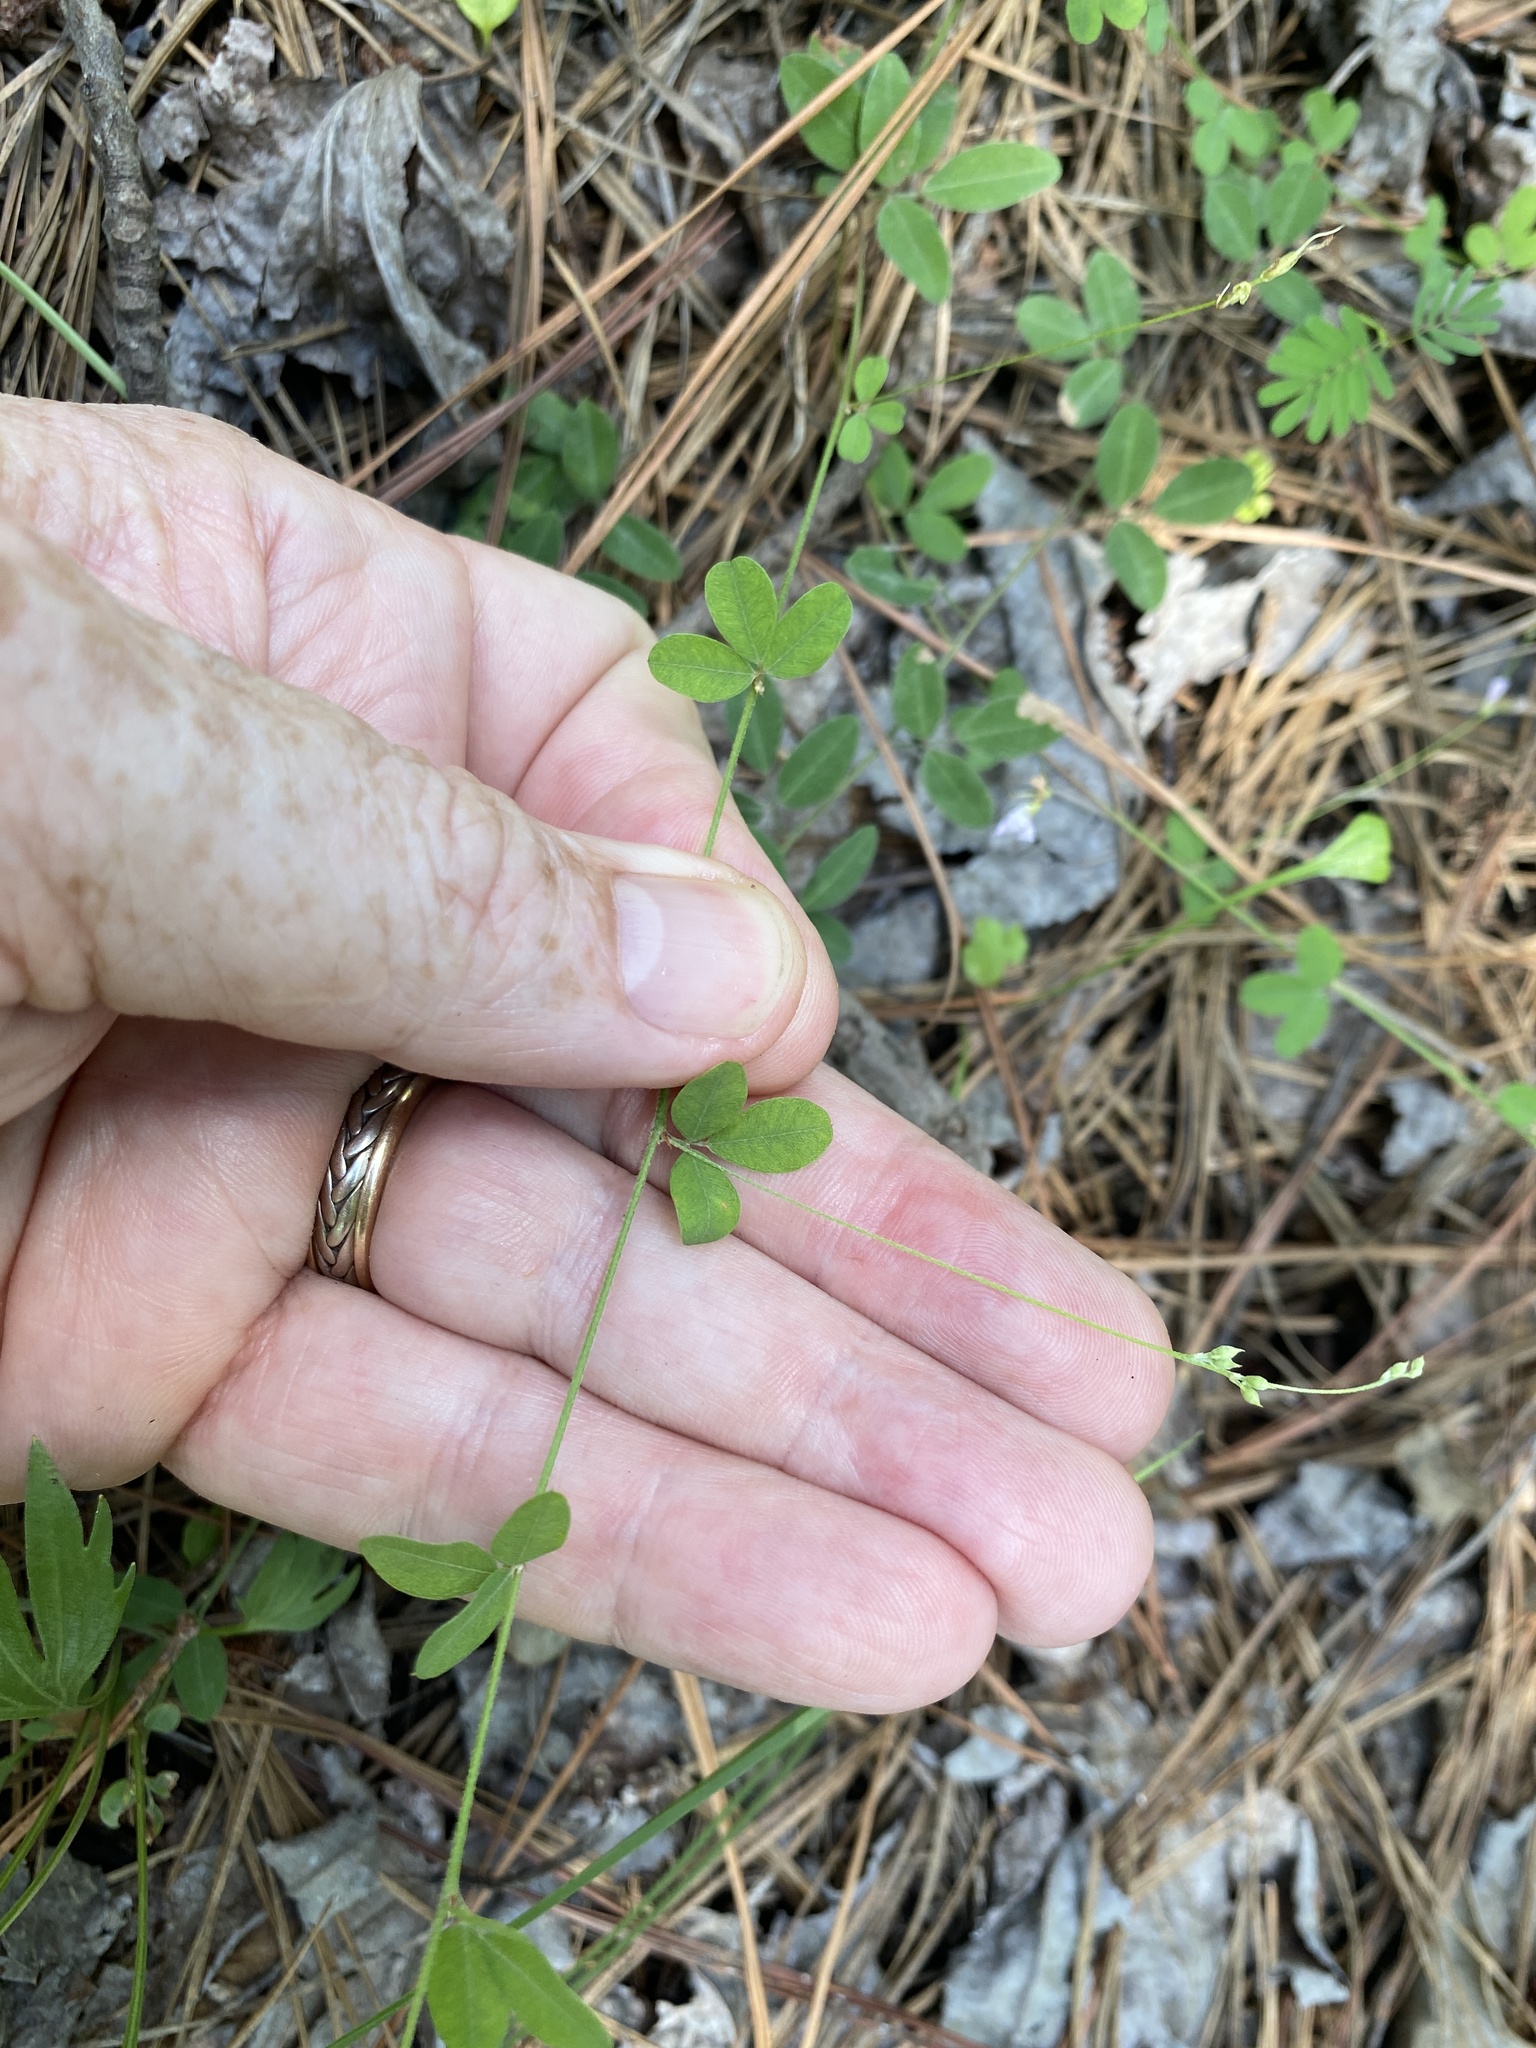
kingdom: Plantae
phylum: Tracheophyta
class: Magnoliopsida
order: Fabales
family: Fabaceae
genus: Lespedeza
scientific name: Lespedeza repens
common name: Creeping bush-clover
